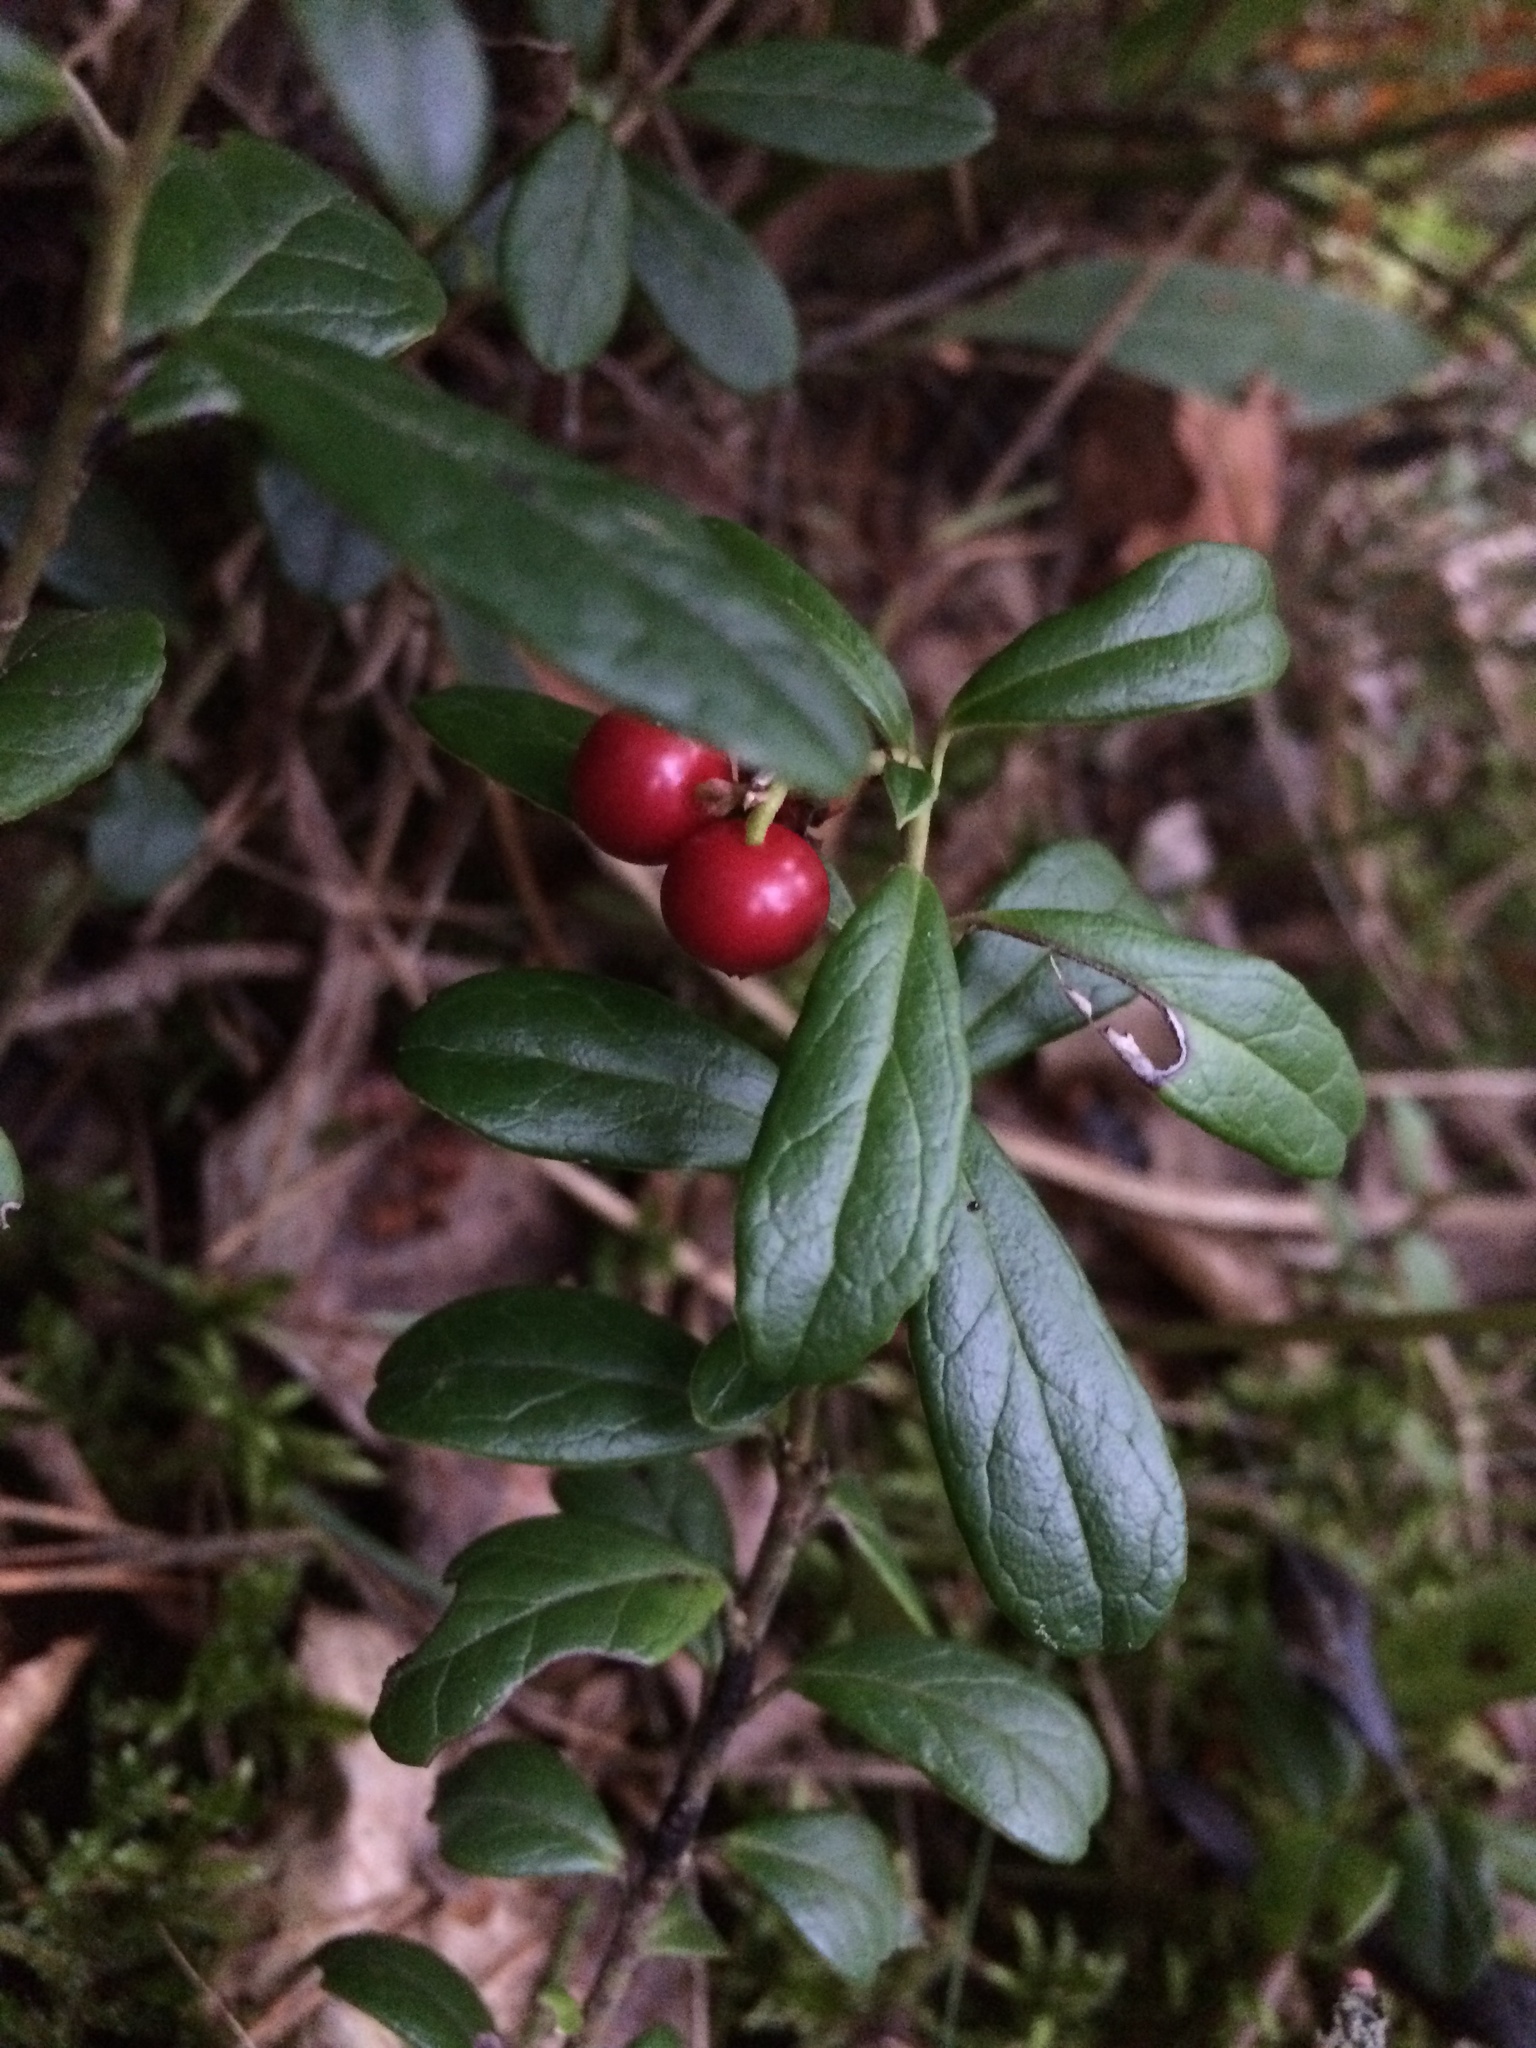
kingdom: Plantae
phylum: Tracheophyta
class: Magnoliopsida
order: Ericales
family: Ericaceae
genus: Vaccinium
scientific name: Vaccinium vitis-idaea
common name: Cowberry
